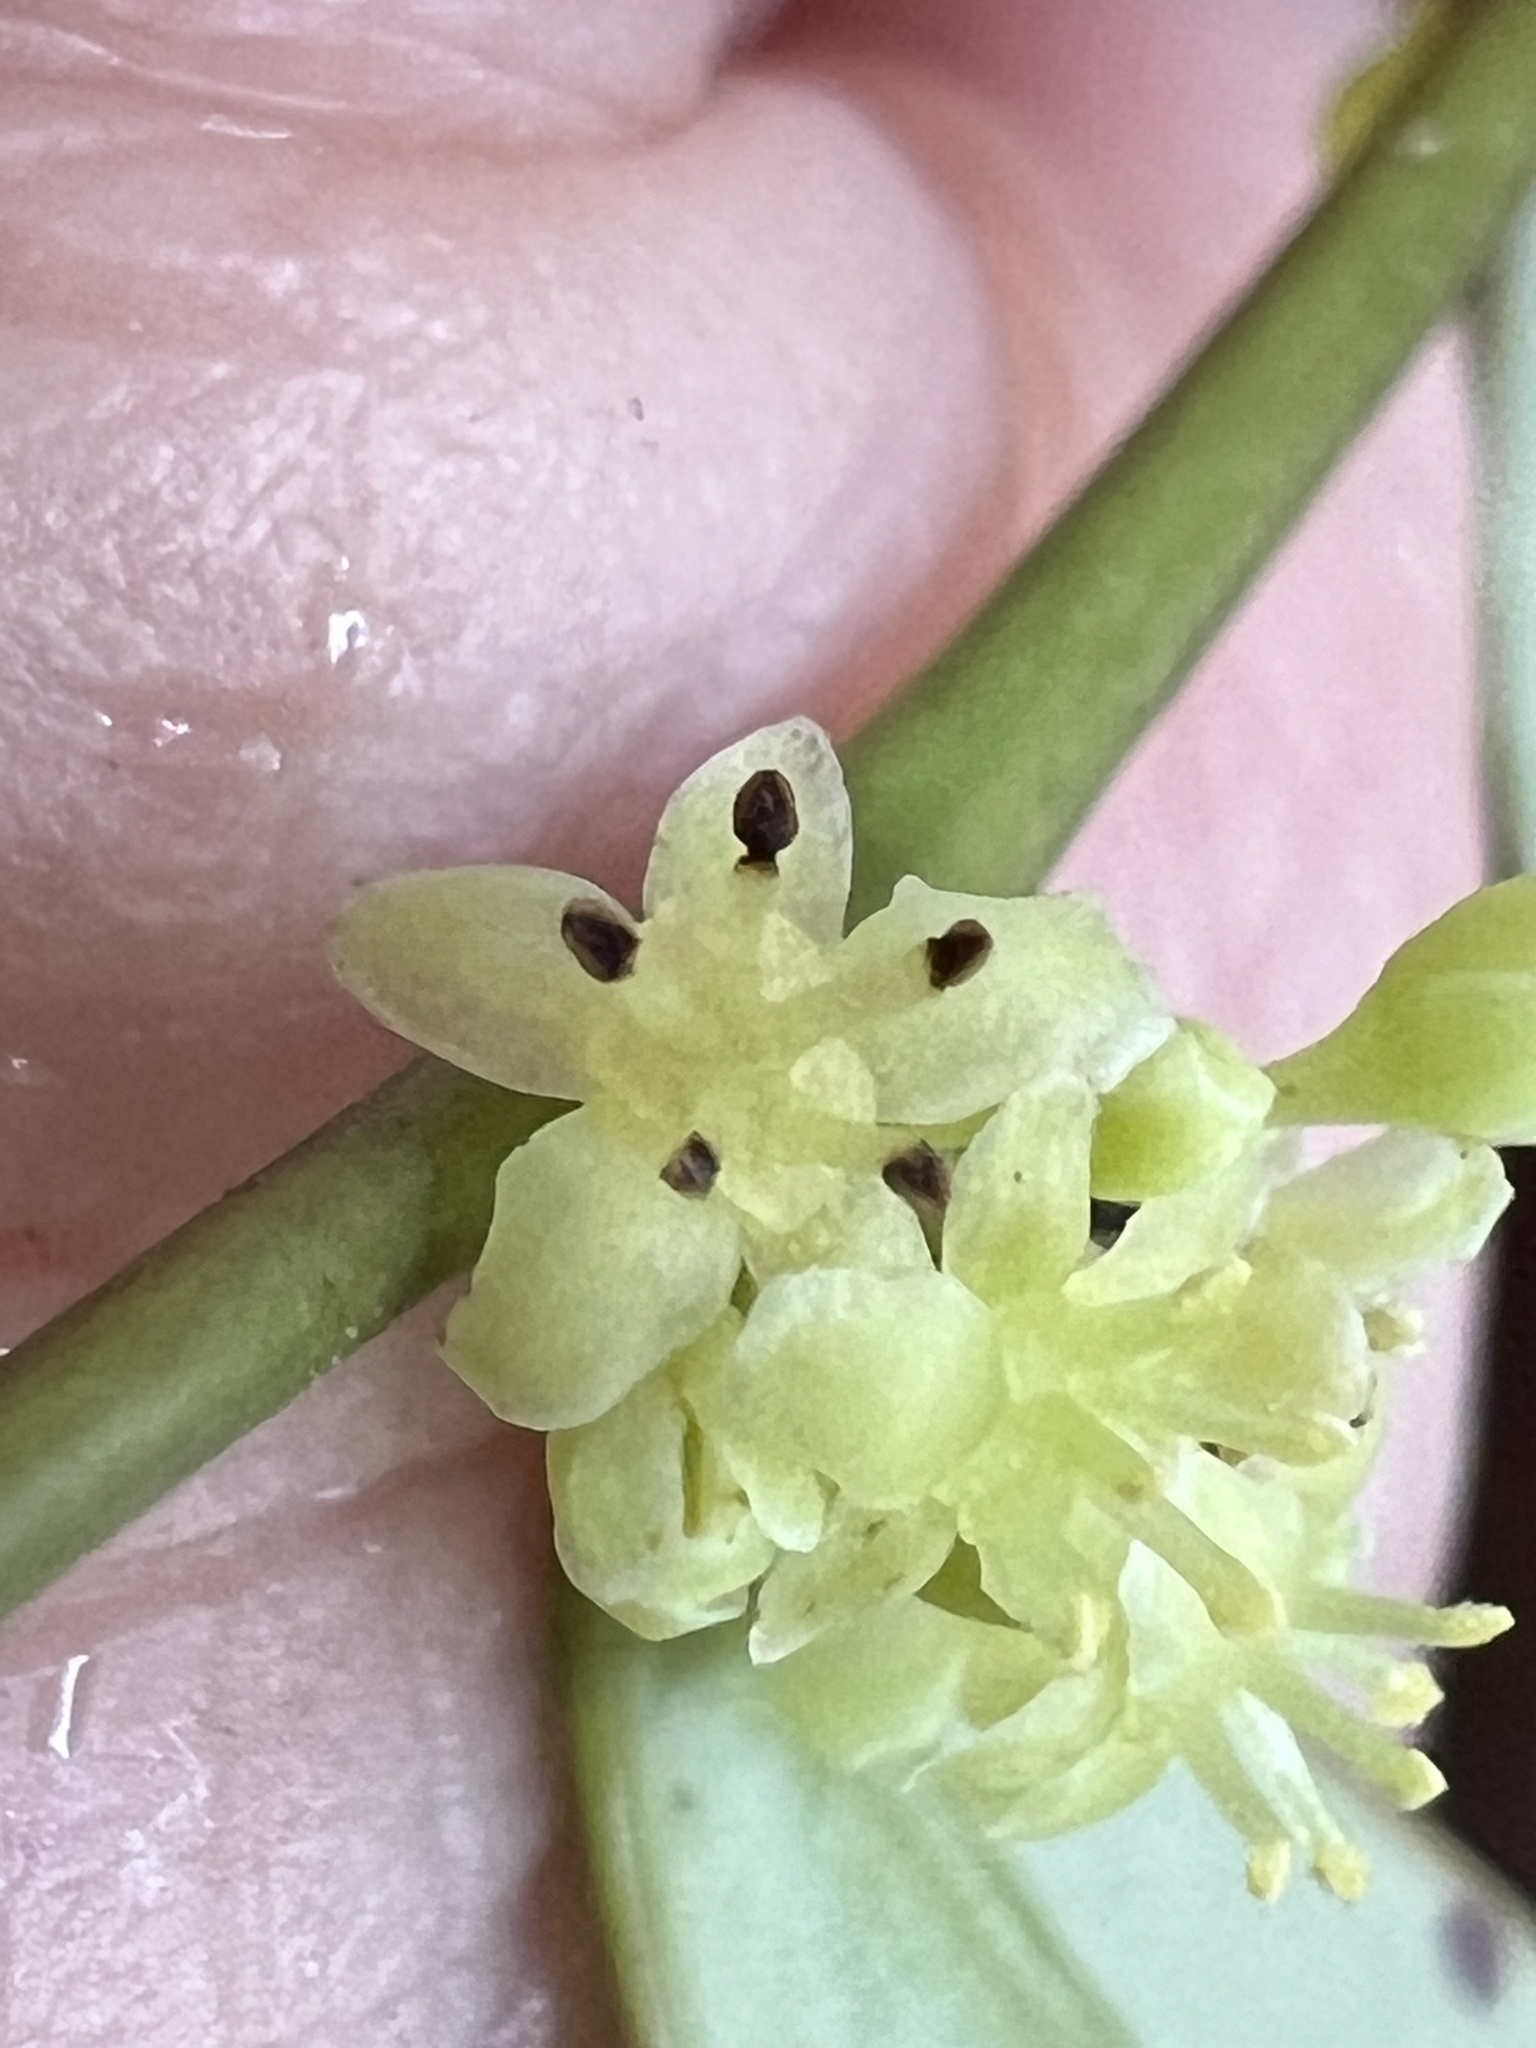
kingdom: Plantae
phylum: Tracheophyta
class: Magnoliopsida
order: Malpighiales
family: Phyllanthaceae
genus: Phyllanthus
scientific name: Phyllanthus hypospodius
